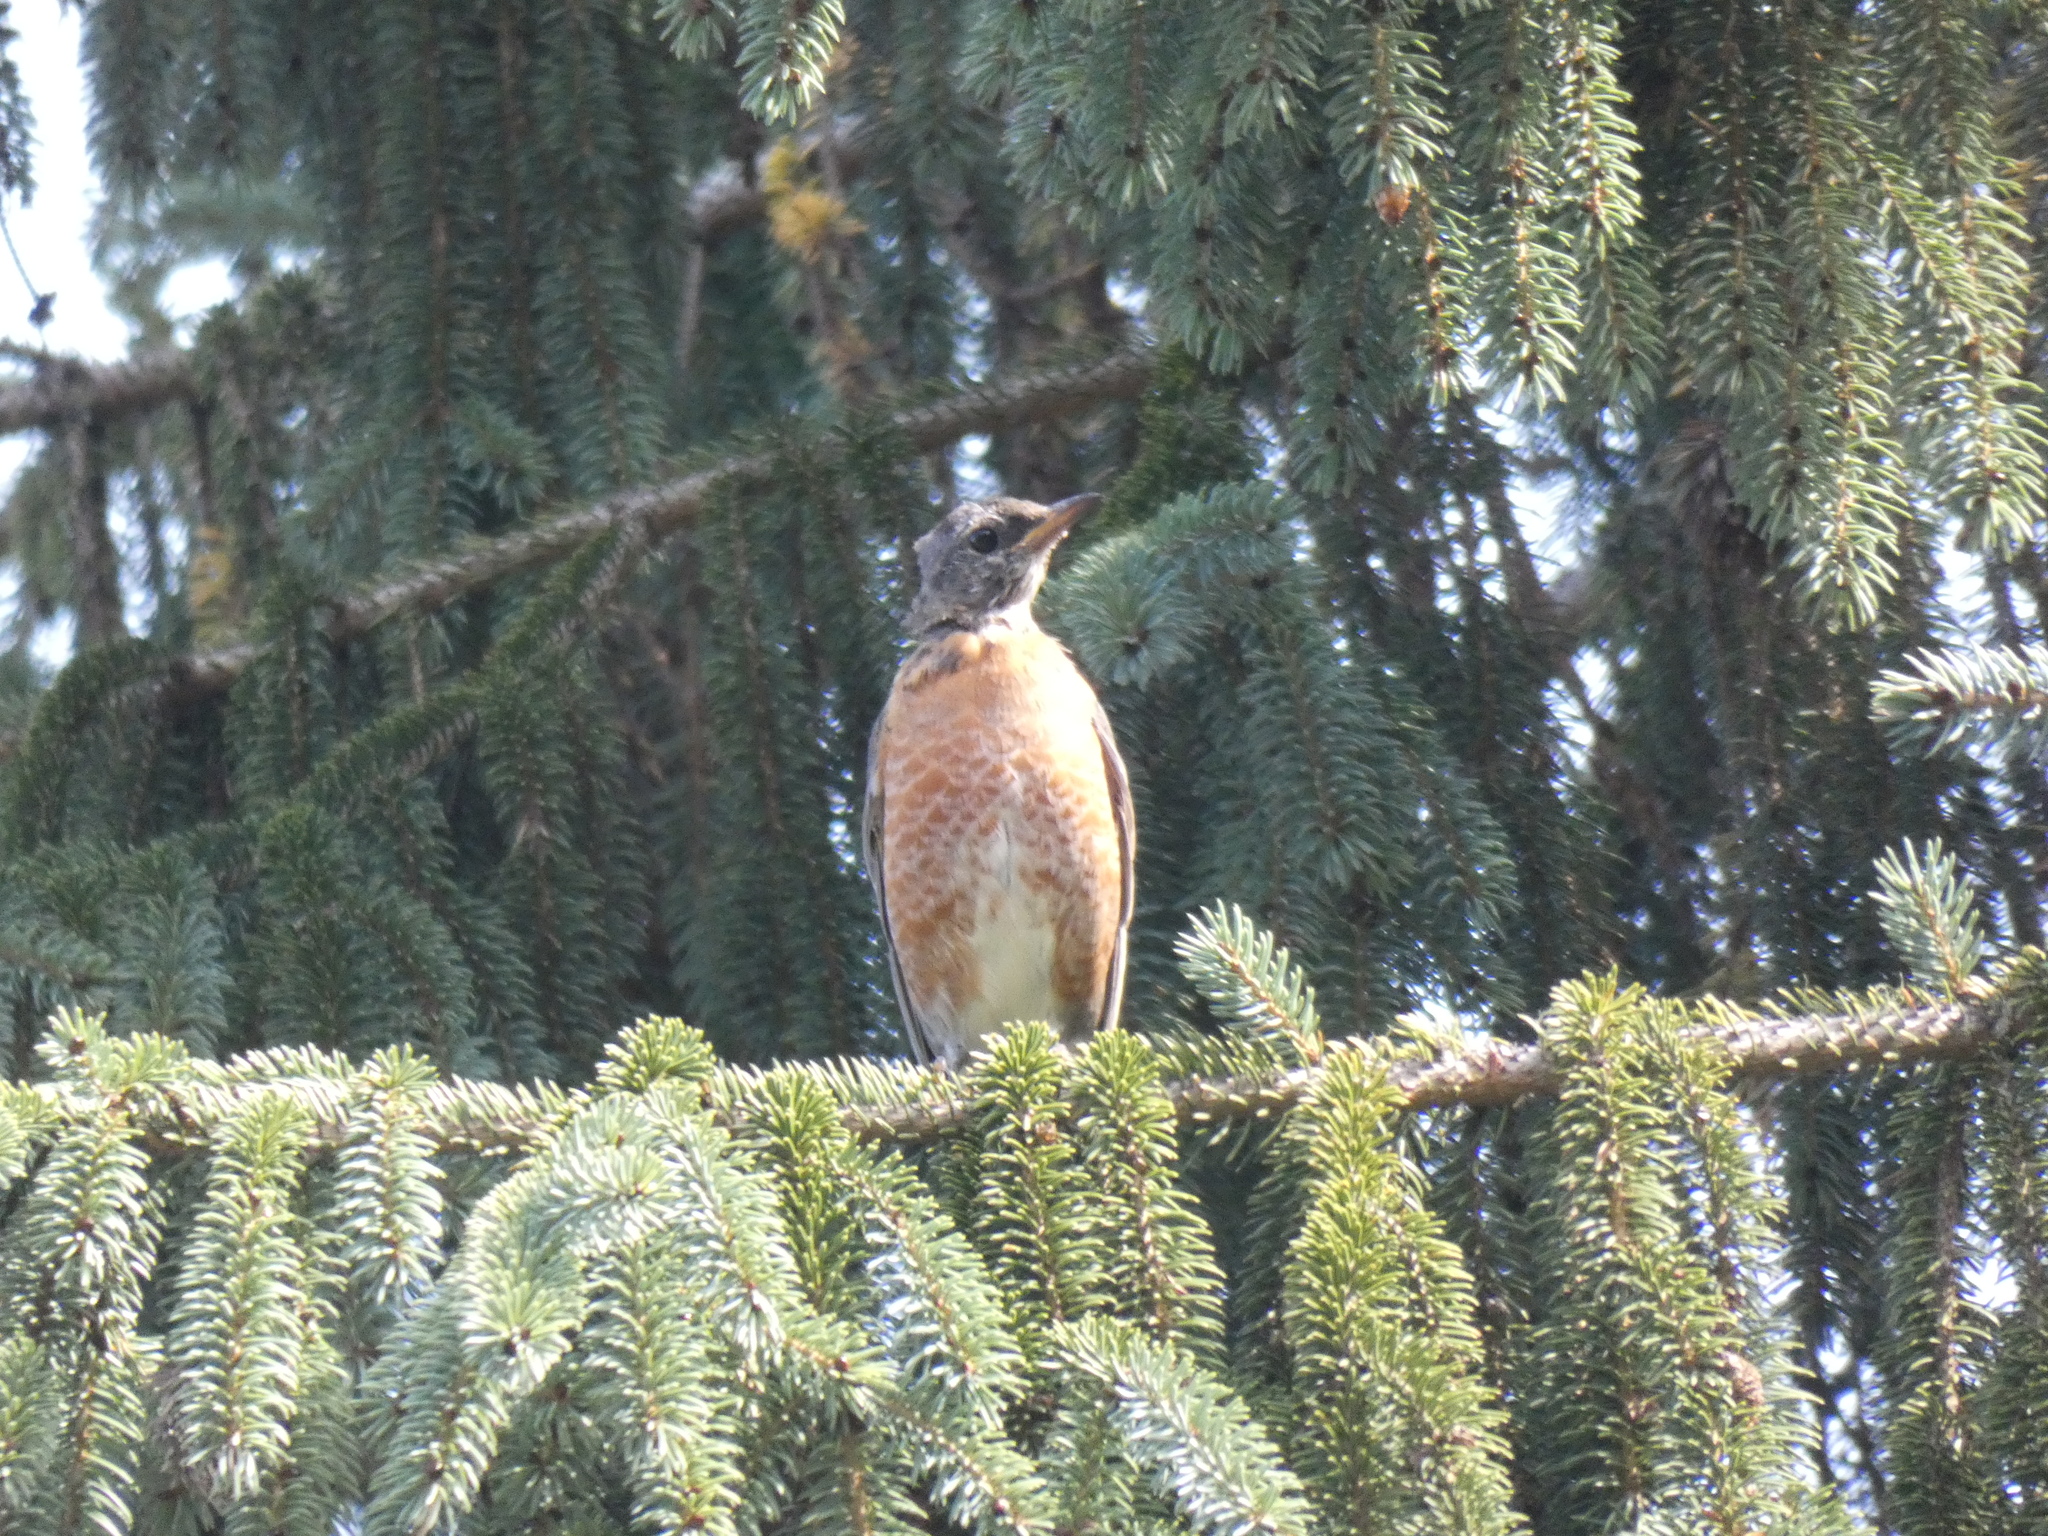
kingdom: Animalia
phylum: Chordata
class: Aves
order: Passeriformes
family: Turdidae
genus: Turdus
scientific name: Turdus migratorius
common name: American robin
